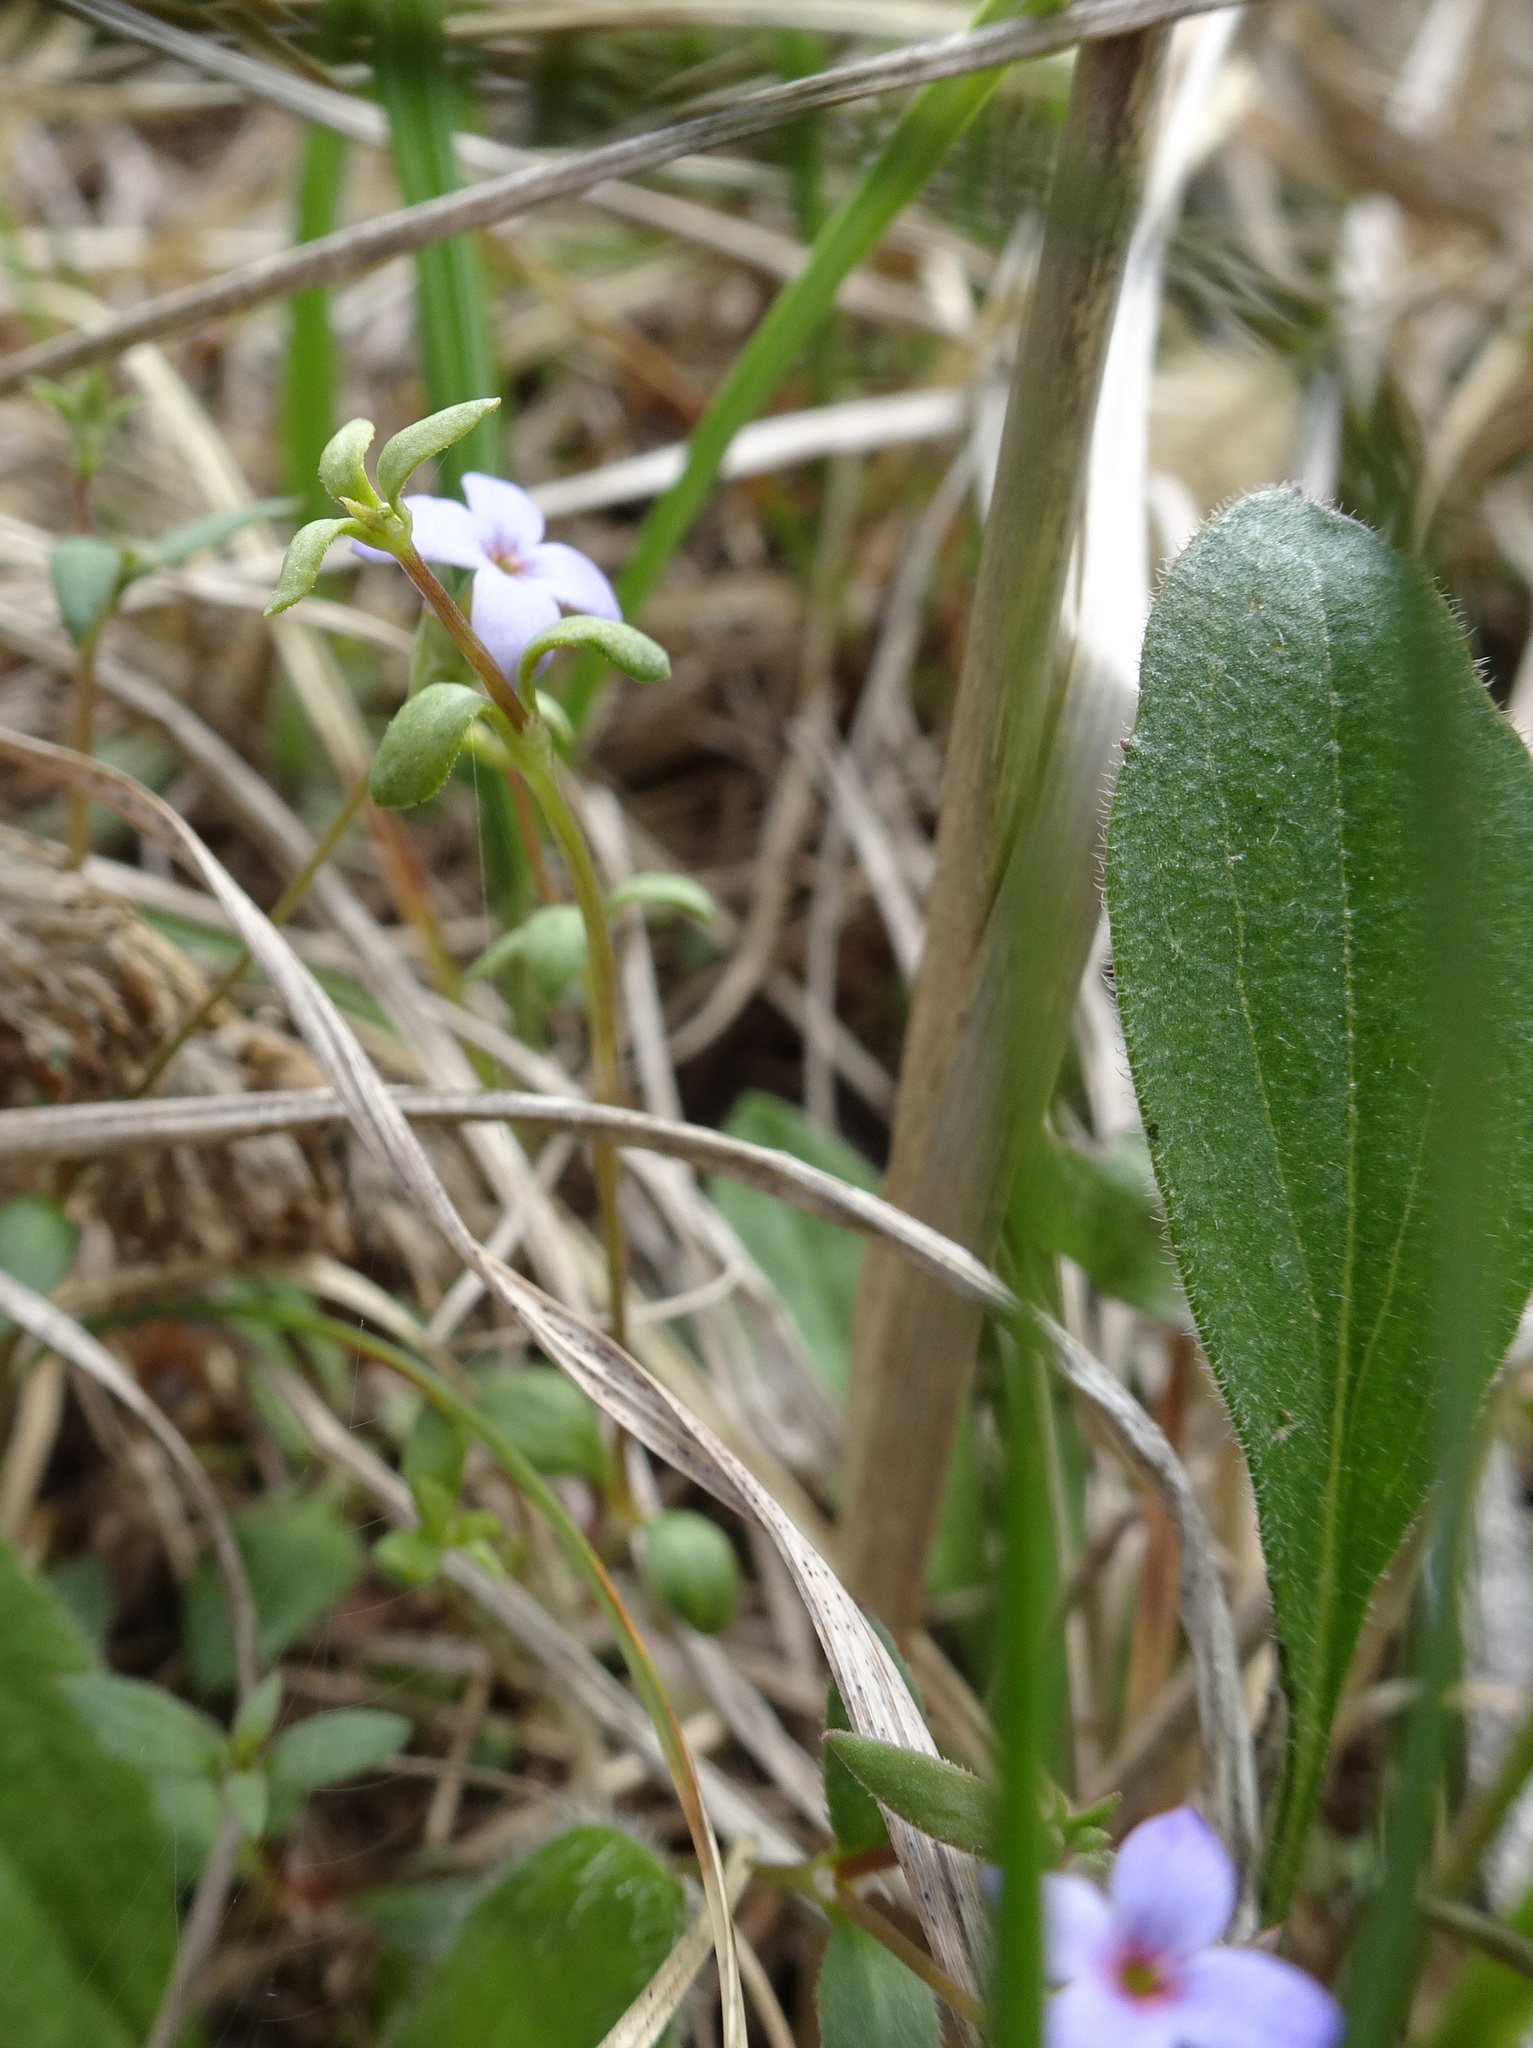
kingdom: Plantae
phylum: Tracheophyta
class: Magnoliopsida
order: Gentianales
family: Rubiaceae
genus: Houstonia
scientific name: Houstonia pusilla
